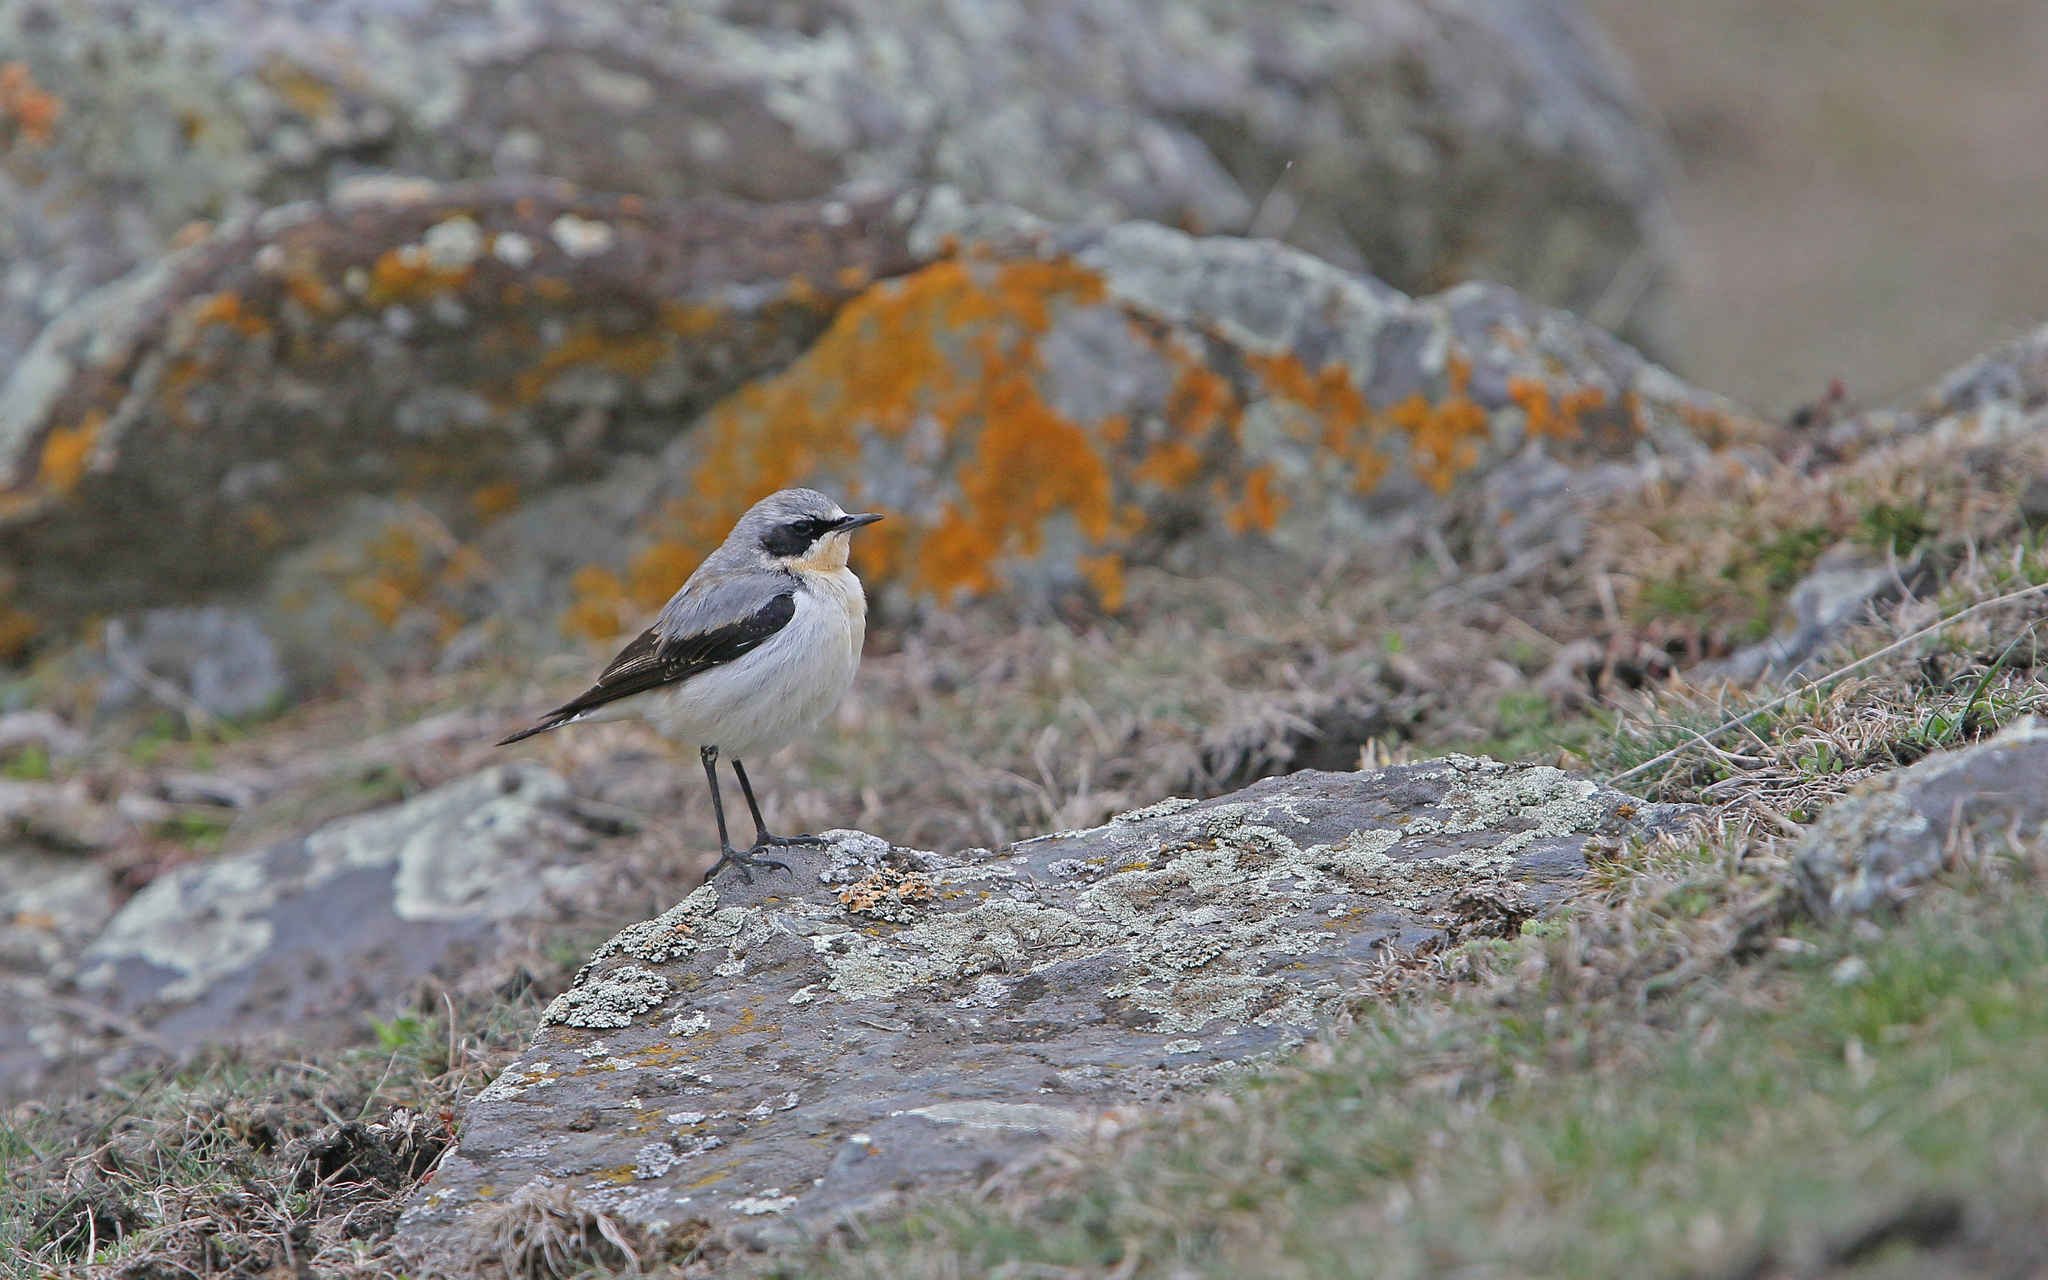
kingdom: Animalia
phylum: Chordata
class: Aves
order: Passeriformes
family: Muscicapidae
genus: Oenanthe
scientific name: Oenanthe oenanthe
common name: Northern wheatear
